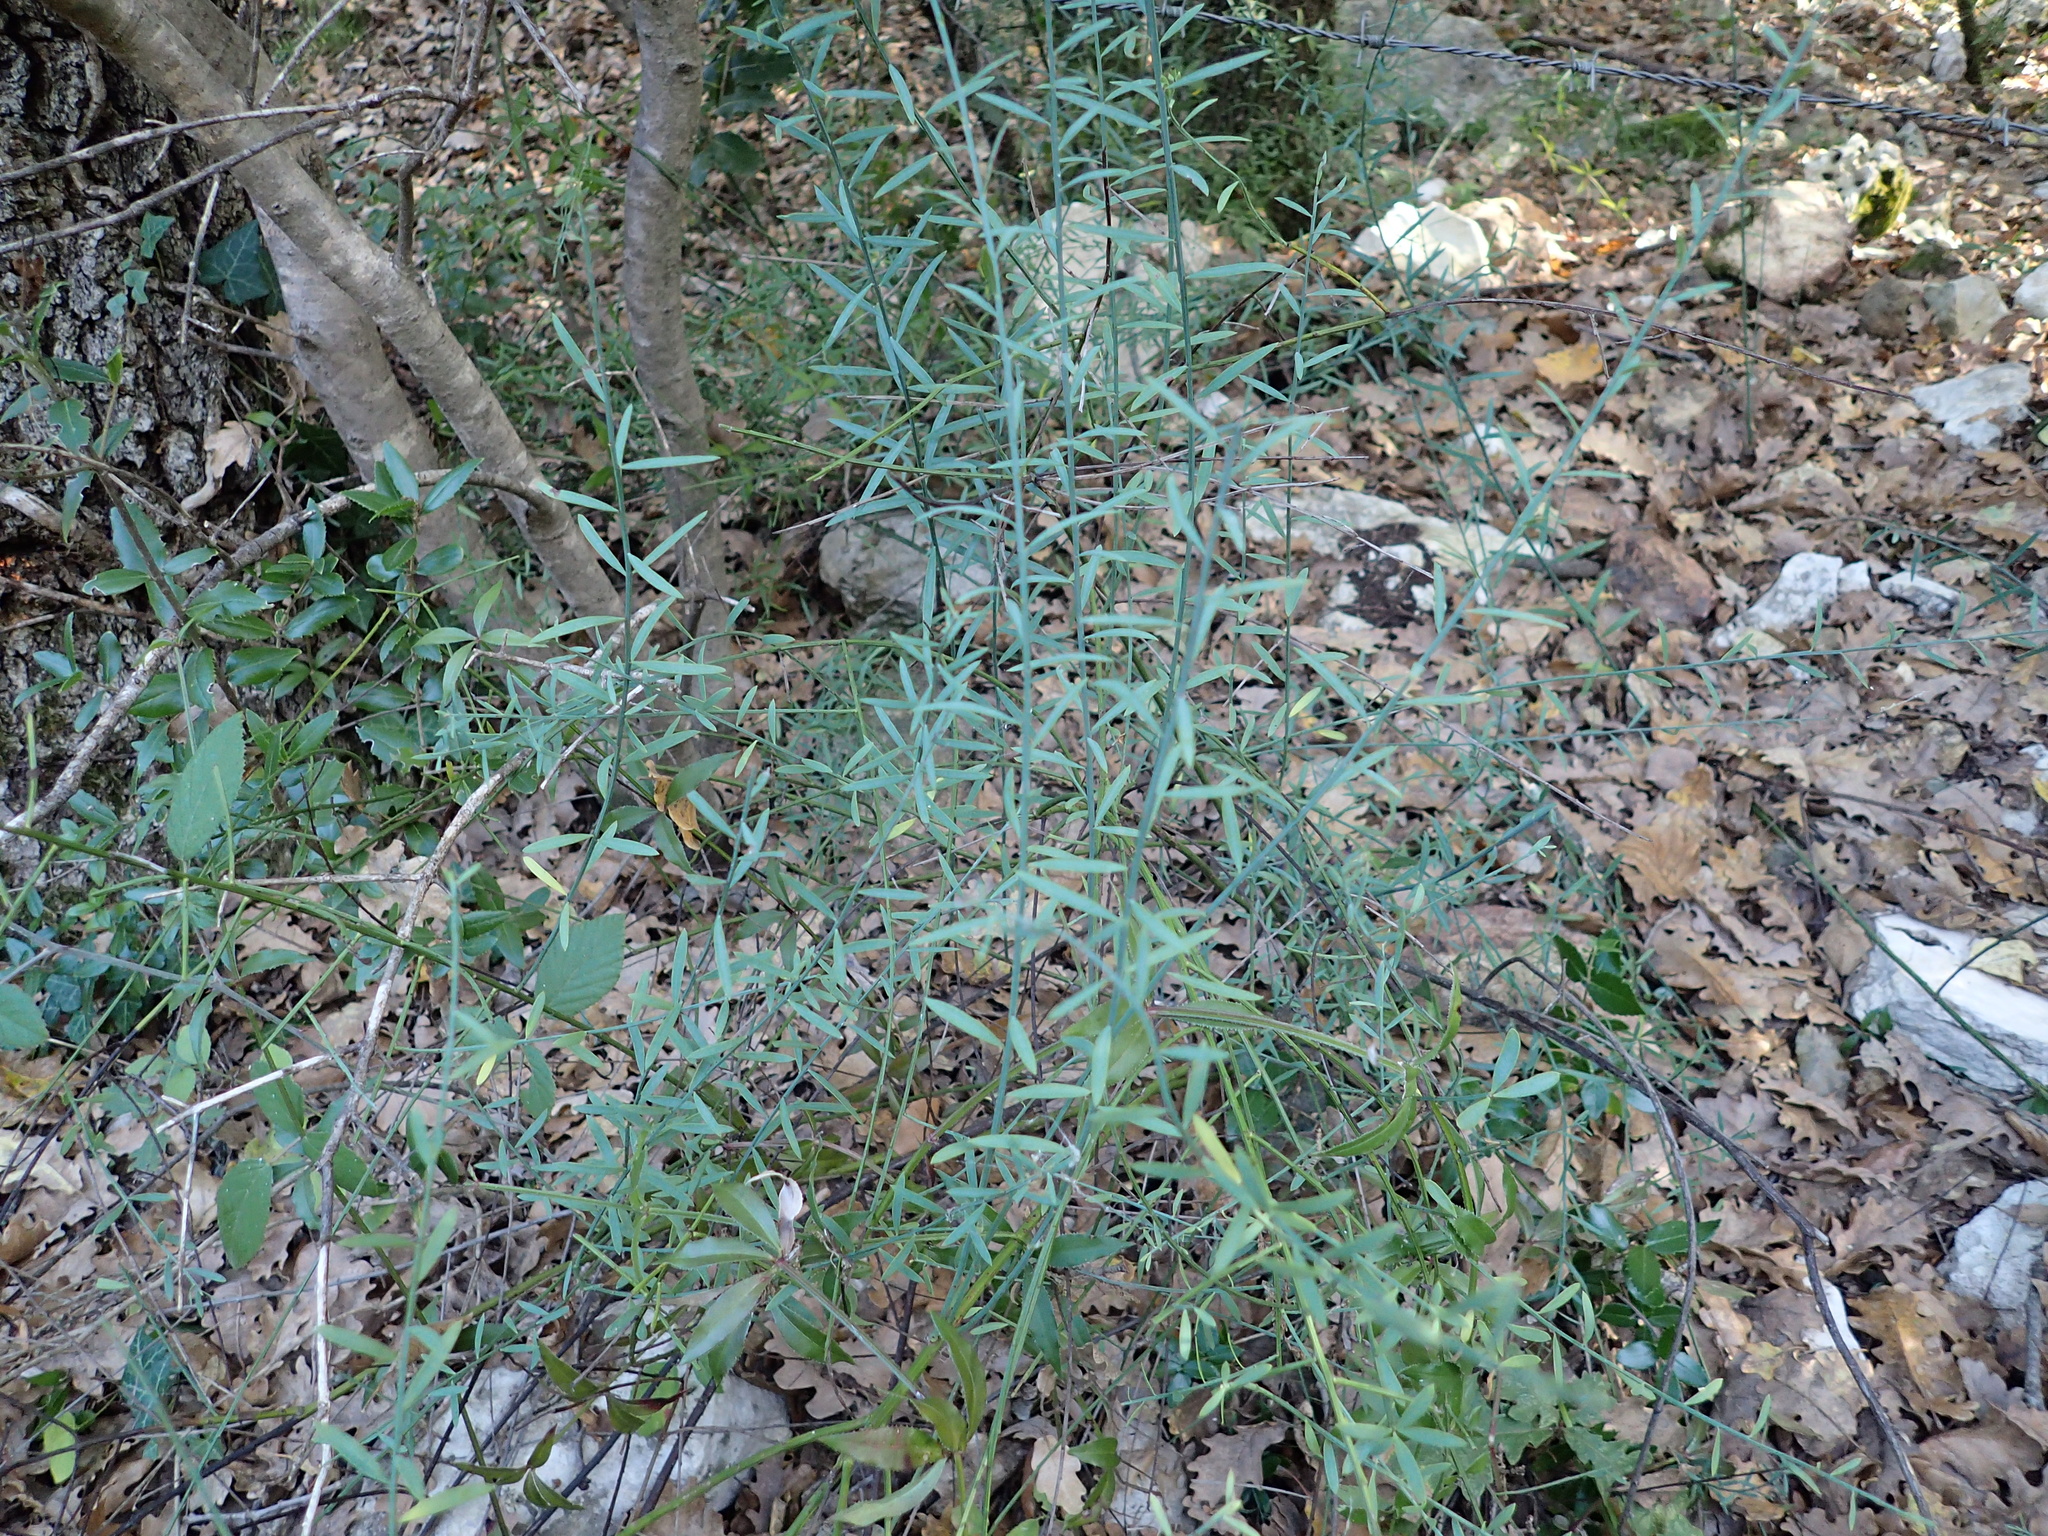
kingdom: Plantae
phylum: Tracheophyta
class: Magnoliopsida
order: Santalales
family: Santalaceae
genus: Osyris
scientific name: Osyris alba
